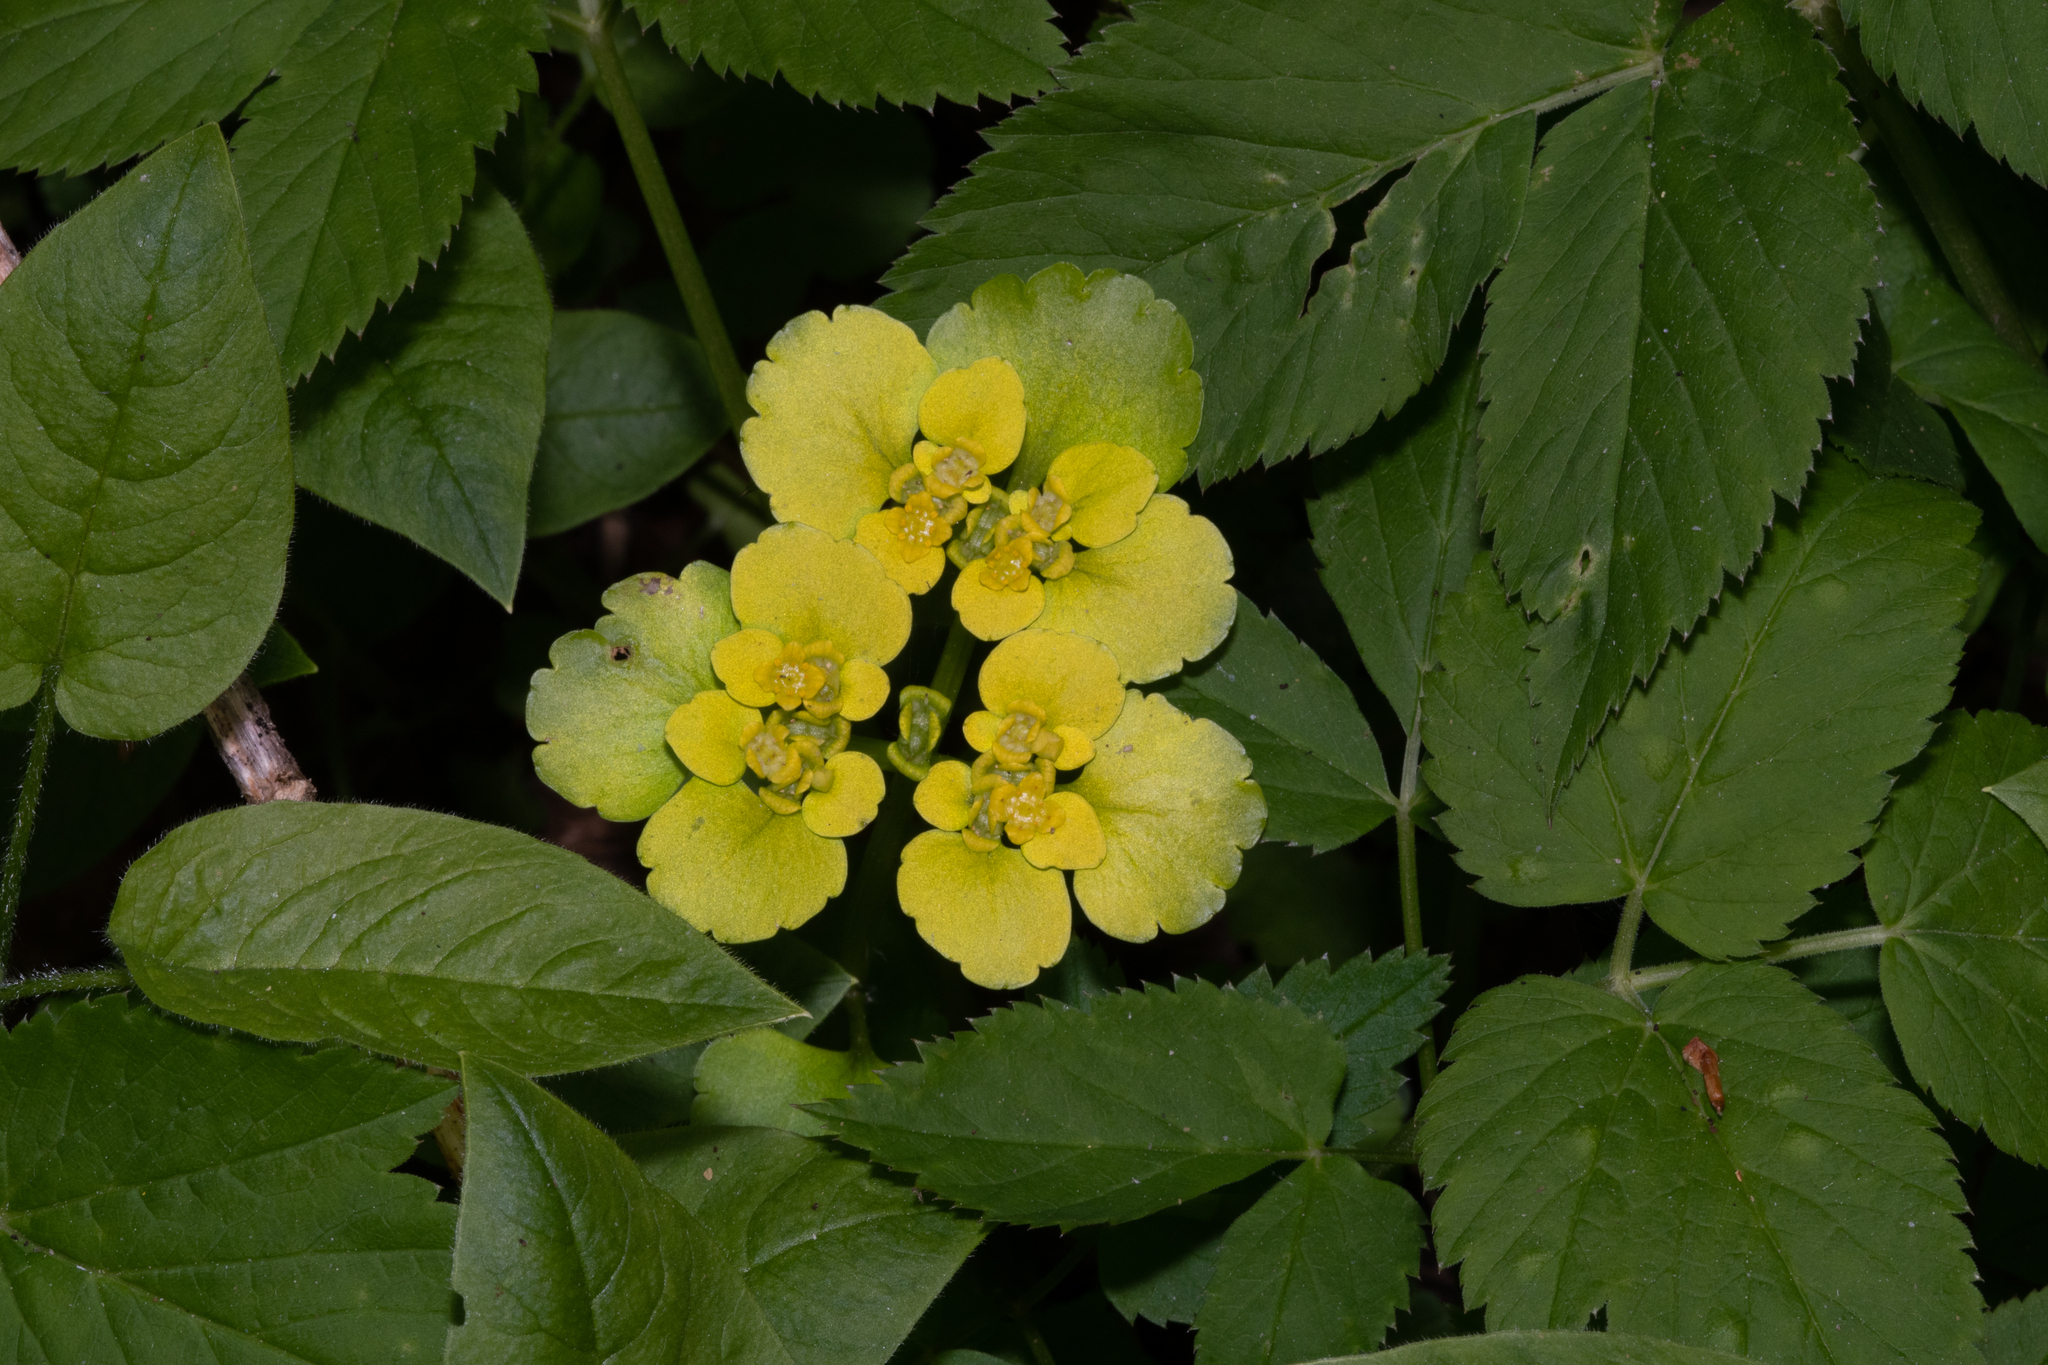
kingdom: Plantae
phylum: Tracheophyta
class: Magnoliopsida
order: Saxifragales
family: Saxifragaceae
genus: Chrysosplenium
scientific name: Chrysosplenium alternifolium
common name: Alternate-leaved golden-saxifrage
